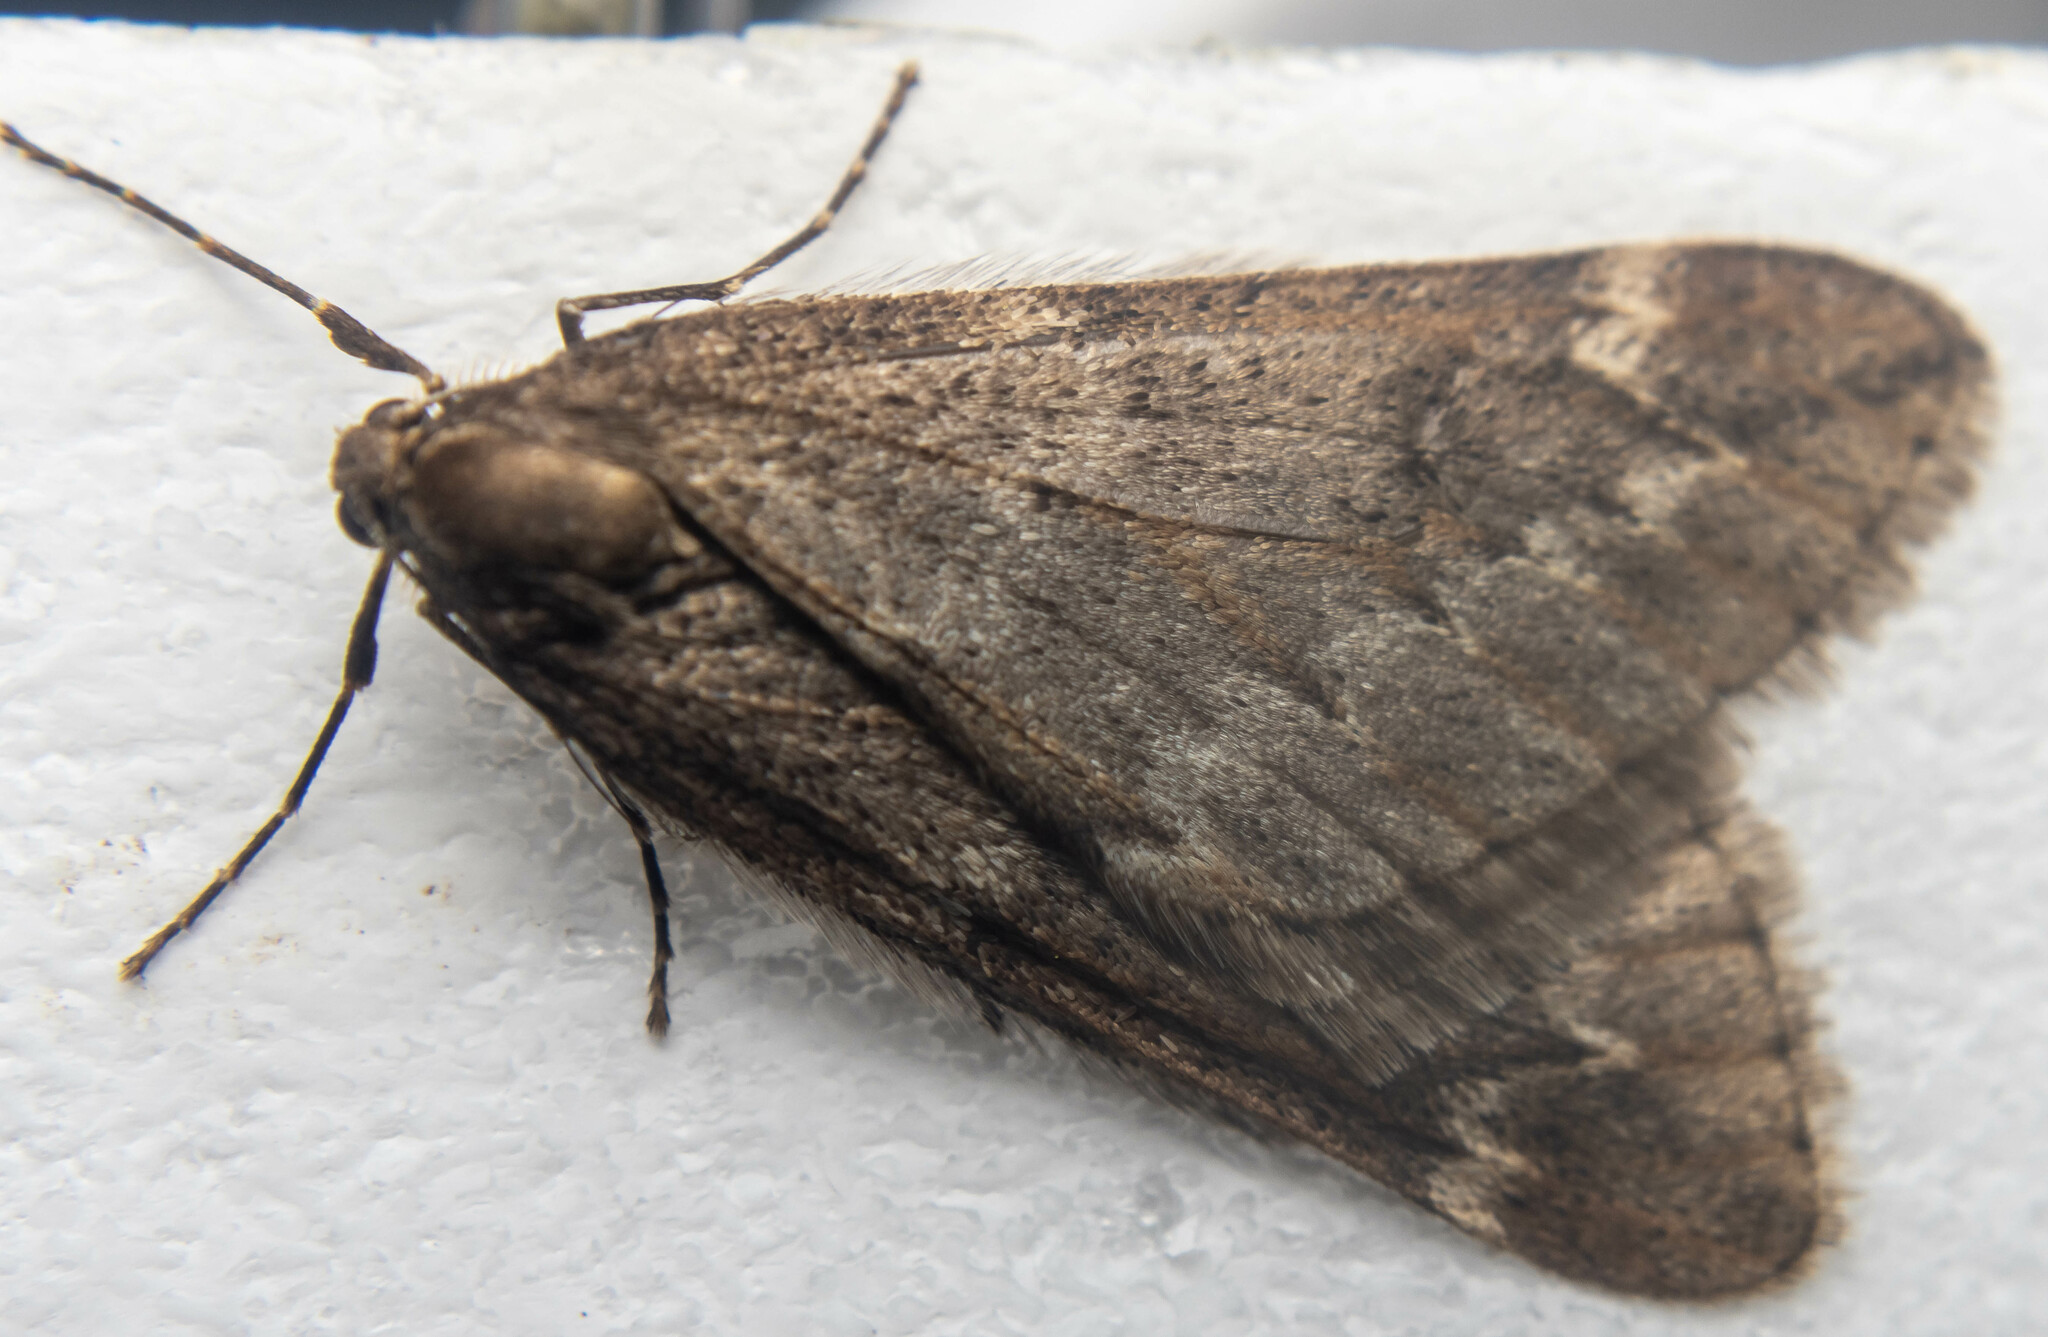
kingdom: Animalia
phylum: Arthropoda
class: Insecta
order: Lepidoptera
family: Geometridae
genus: Alsophila
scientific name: Alsophila aescularia
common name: March moth
